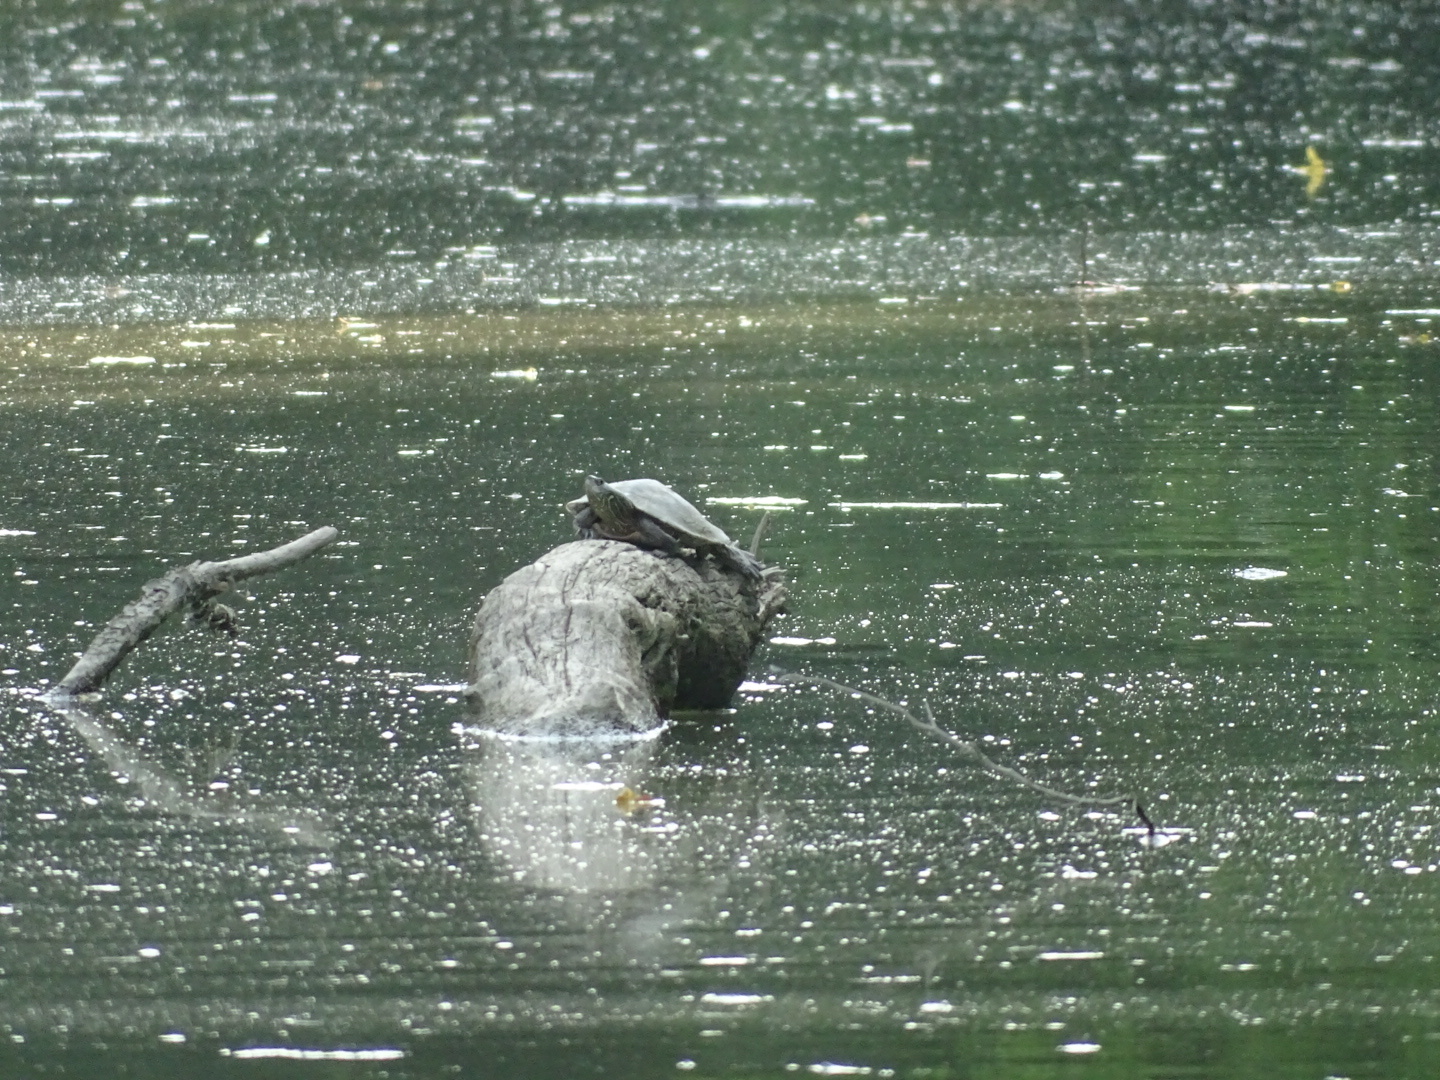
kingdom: Animalia
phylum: Chordata
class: Testudines
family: Emydidae
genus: Graptemys
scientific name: Graptemys geographica
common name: Common map turtle
